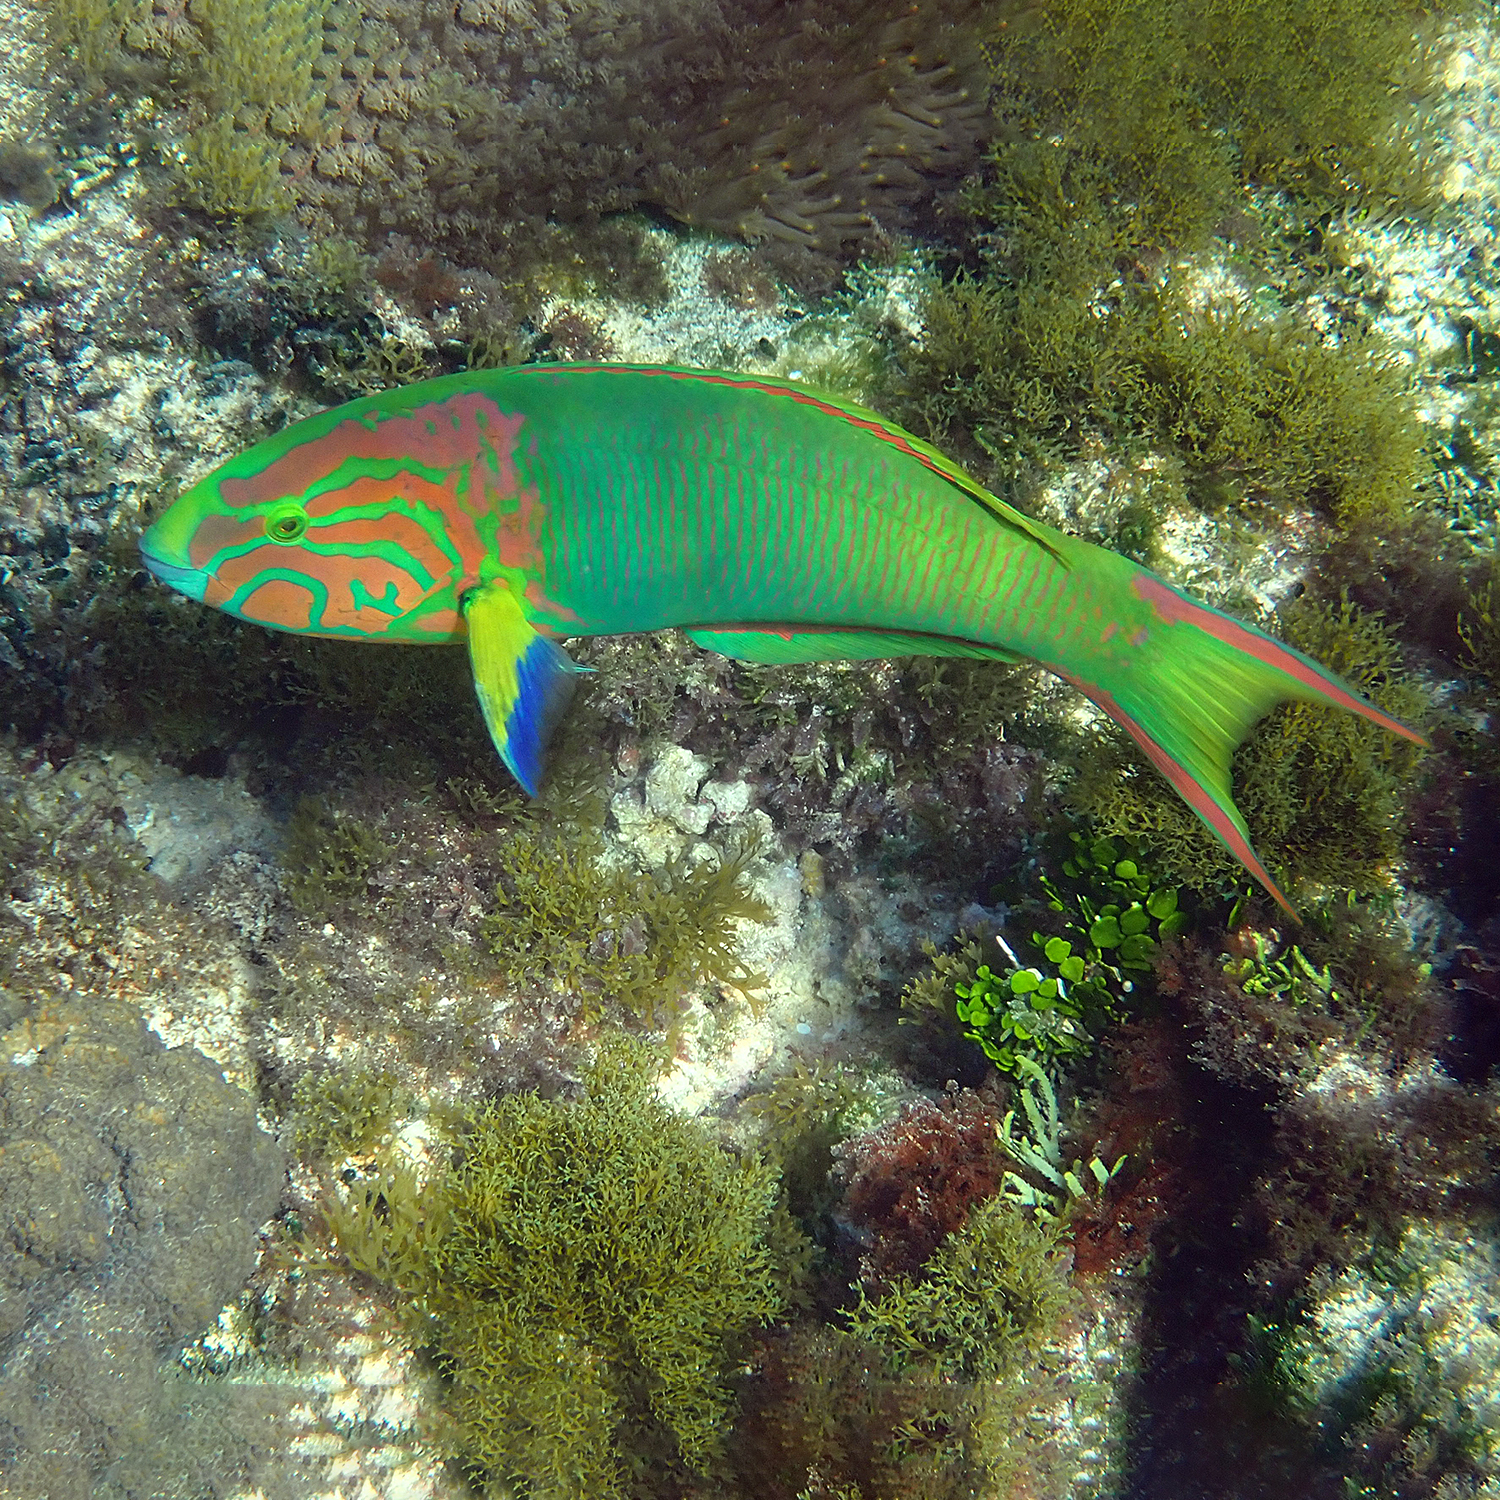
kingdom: Animalia
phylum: Chordata
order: Perciformes
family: Labridae
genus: Thalassoma
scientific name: Thalassoma lutescens
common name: Green moon wrasse
